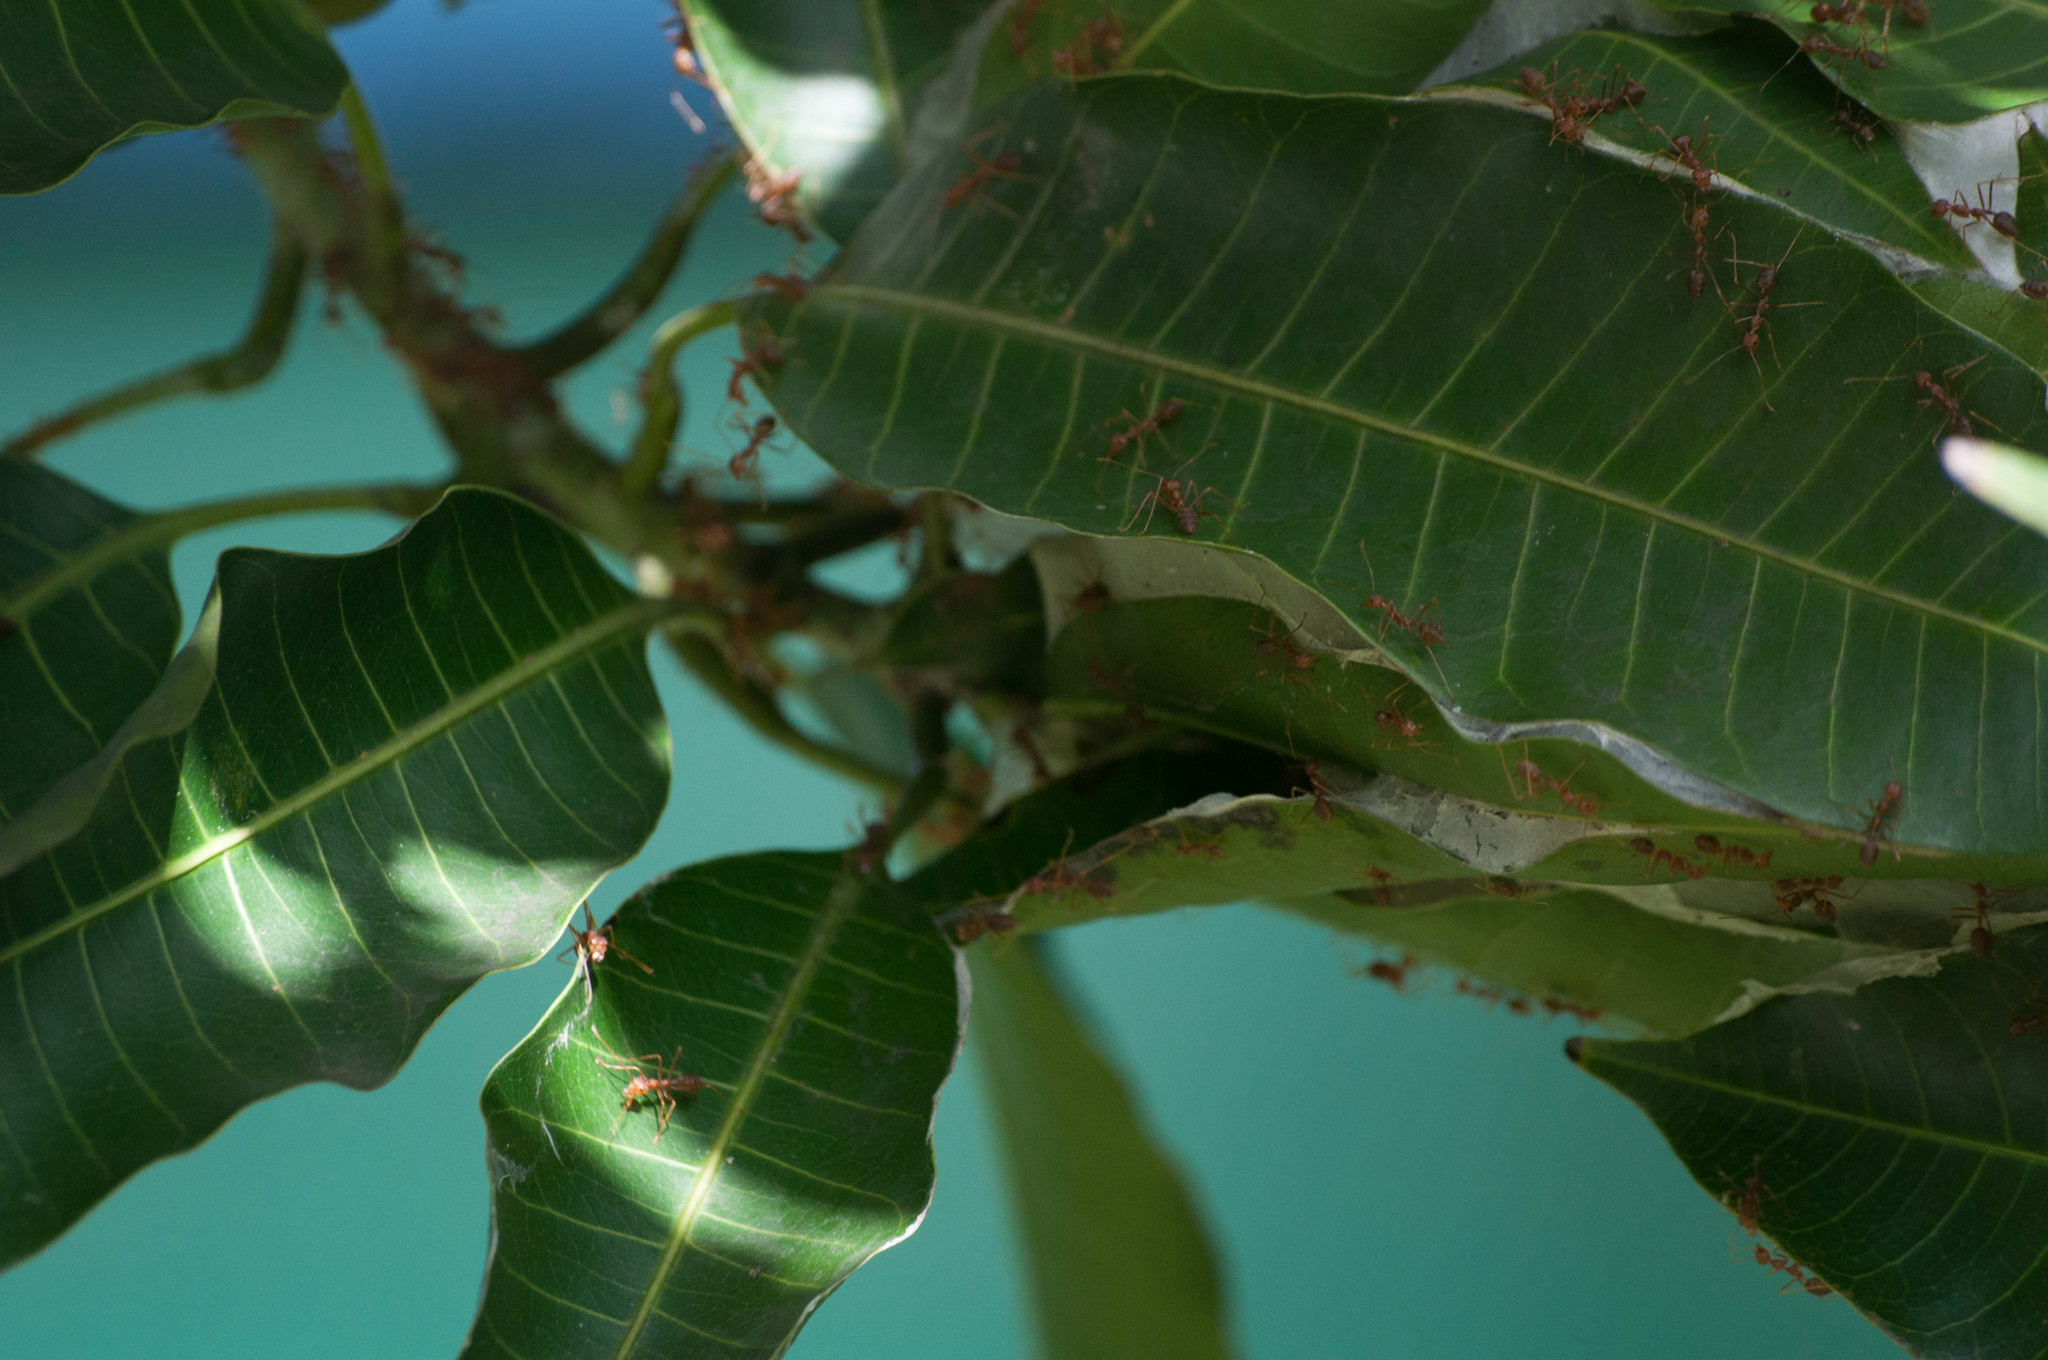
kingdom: Animalia
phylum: Arthropoda
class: Insecta
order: Hymenoptera
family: Formicidae
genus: Oecophylla
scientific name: Oecophylla smaragdina
